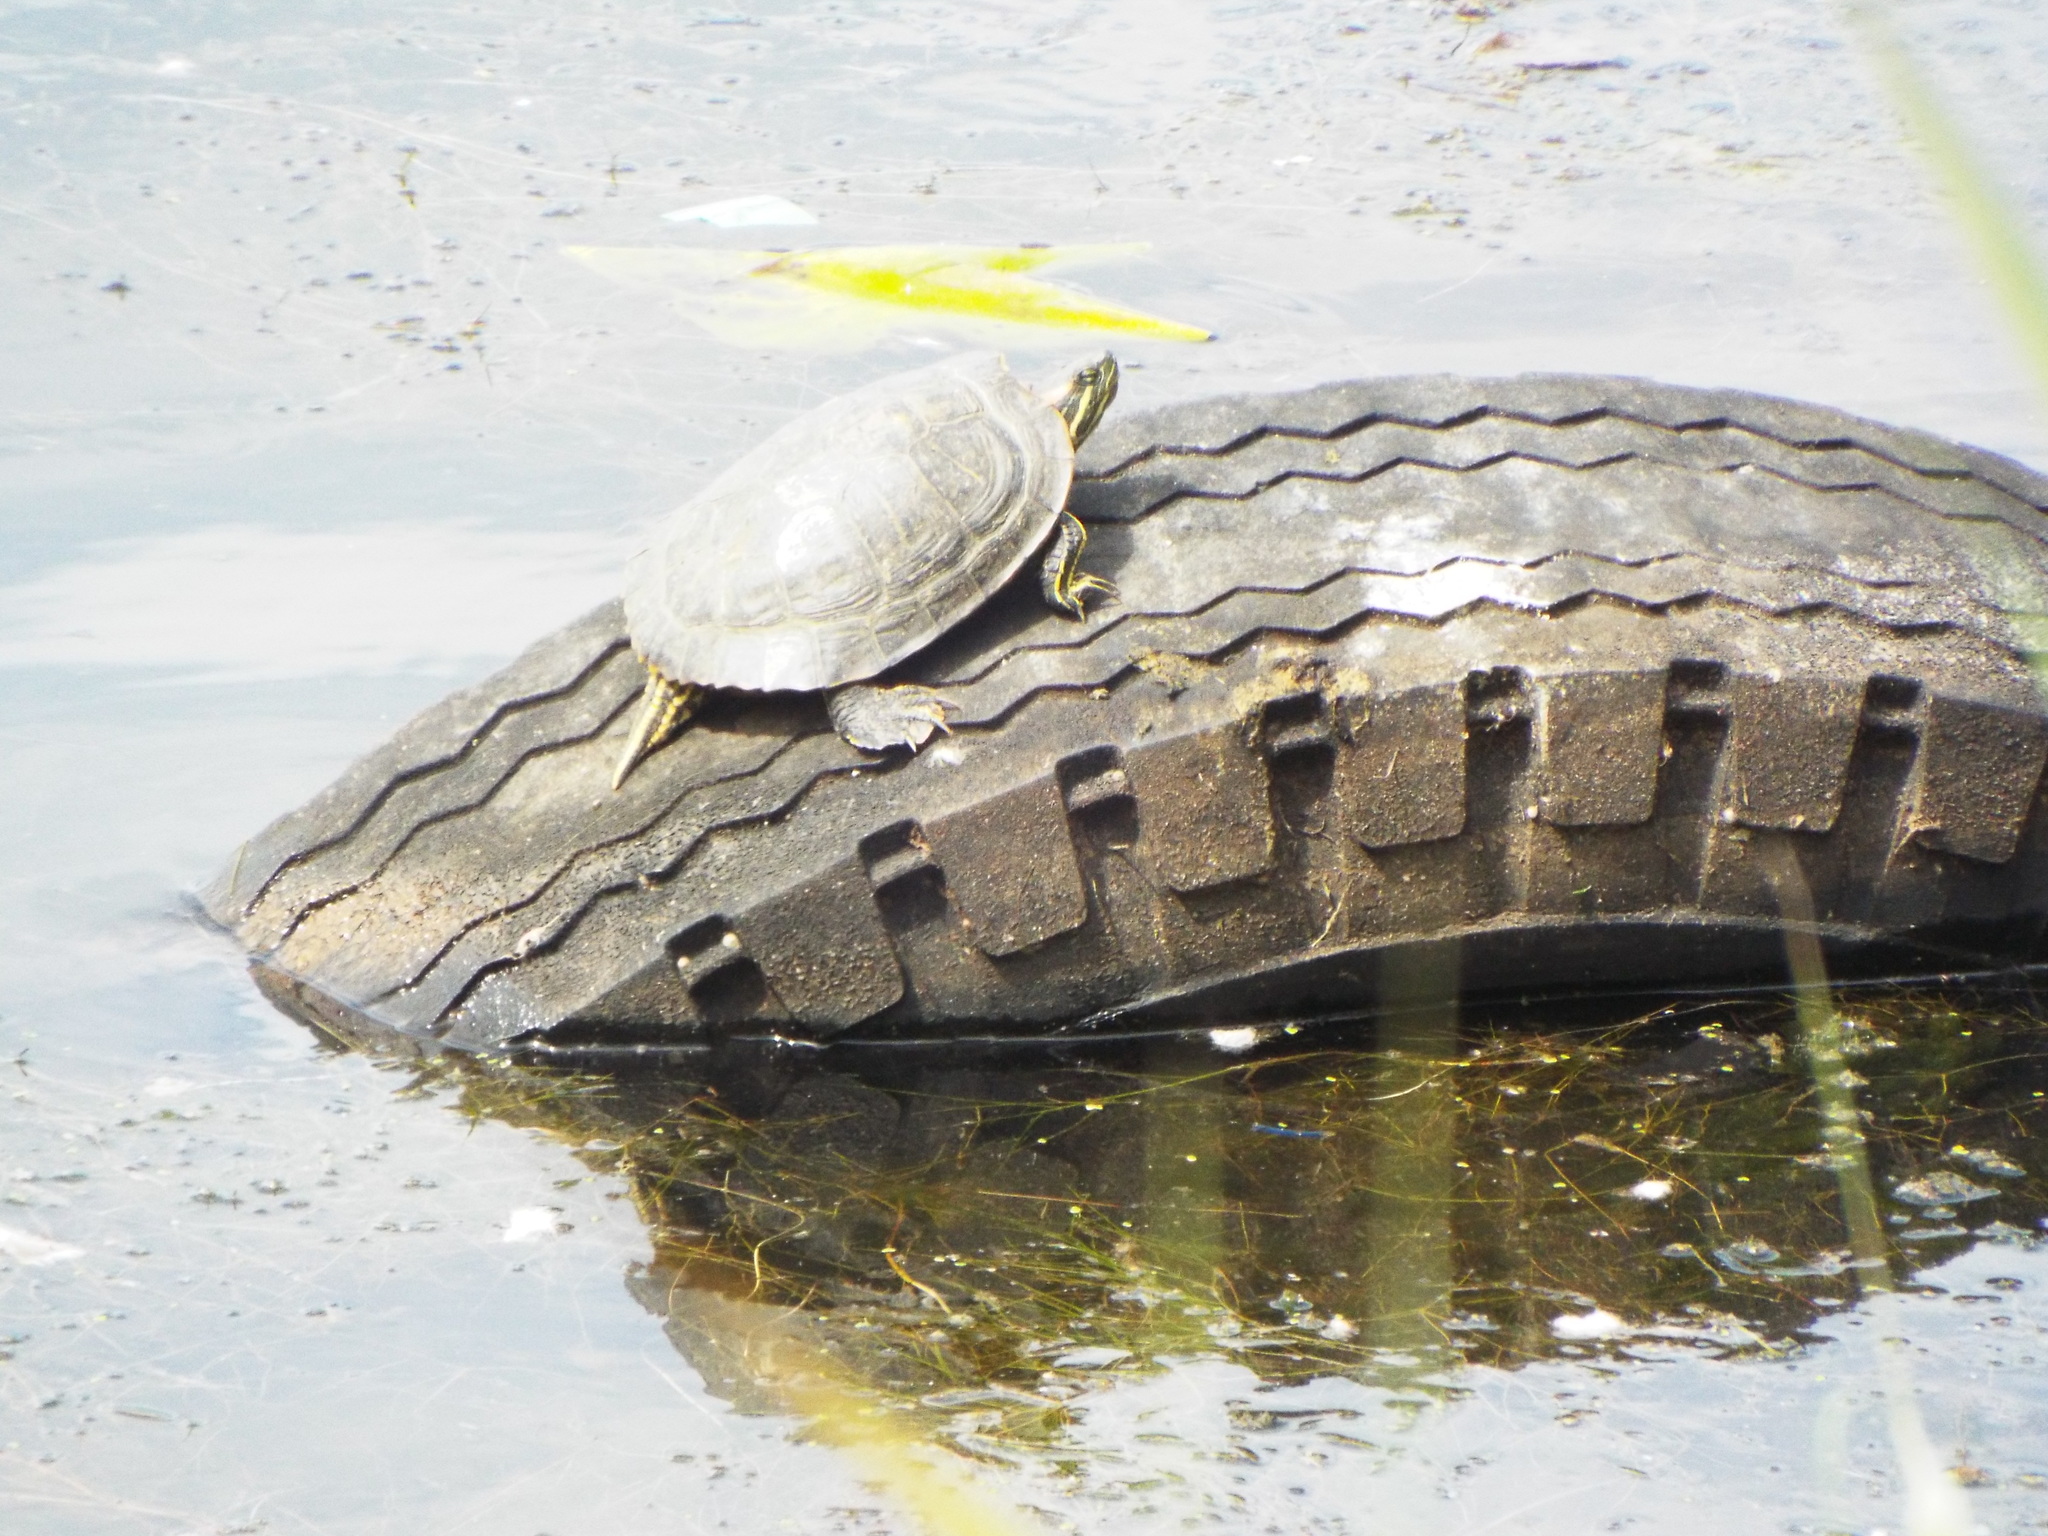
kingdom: Animalia
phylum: Chordata
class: Testudines
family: Emydidae
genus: Trachemys
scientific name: Trachemys scripta
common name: Slider
